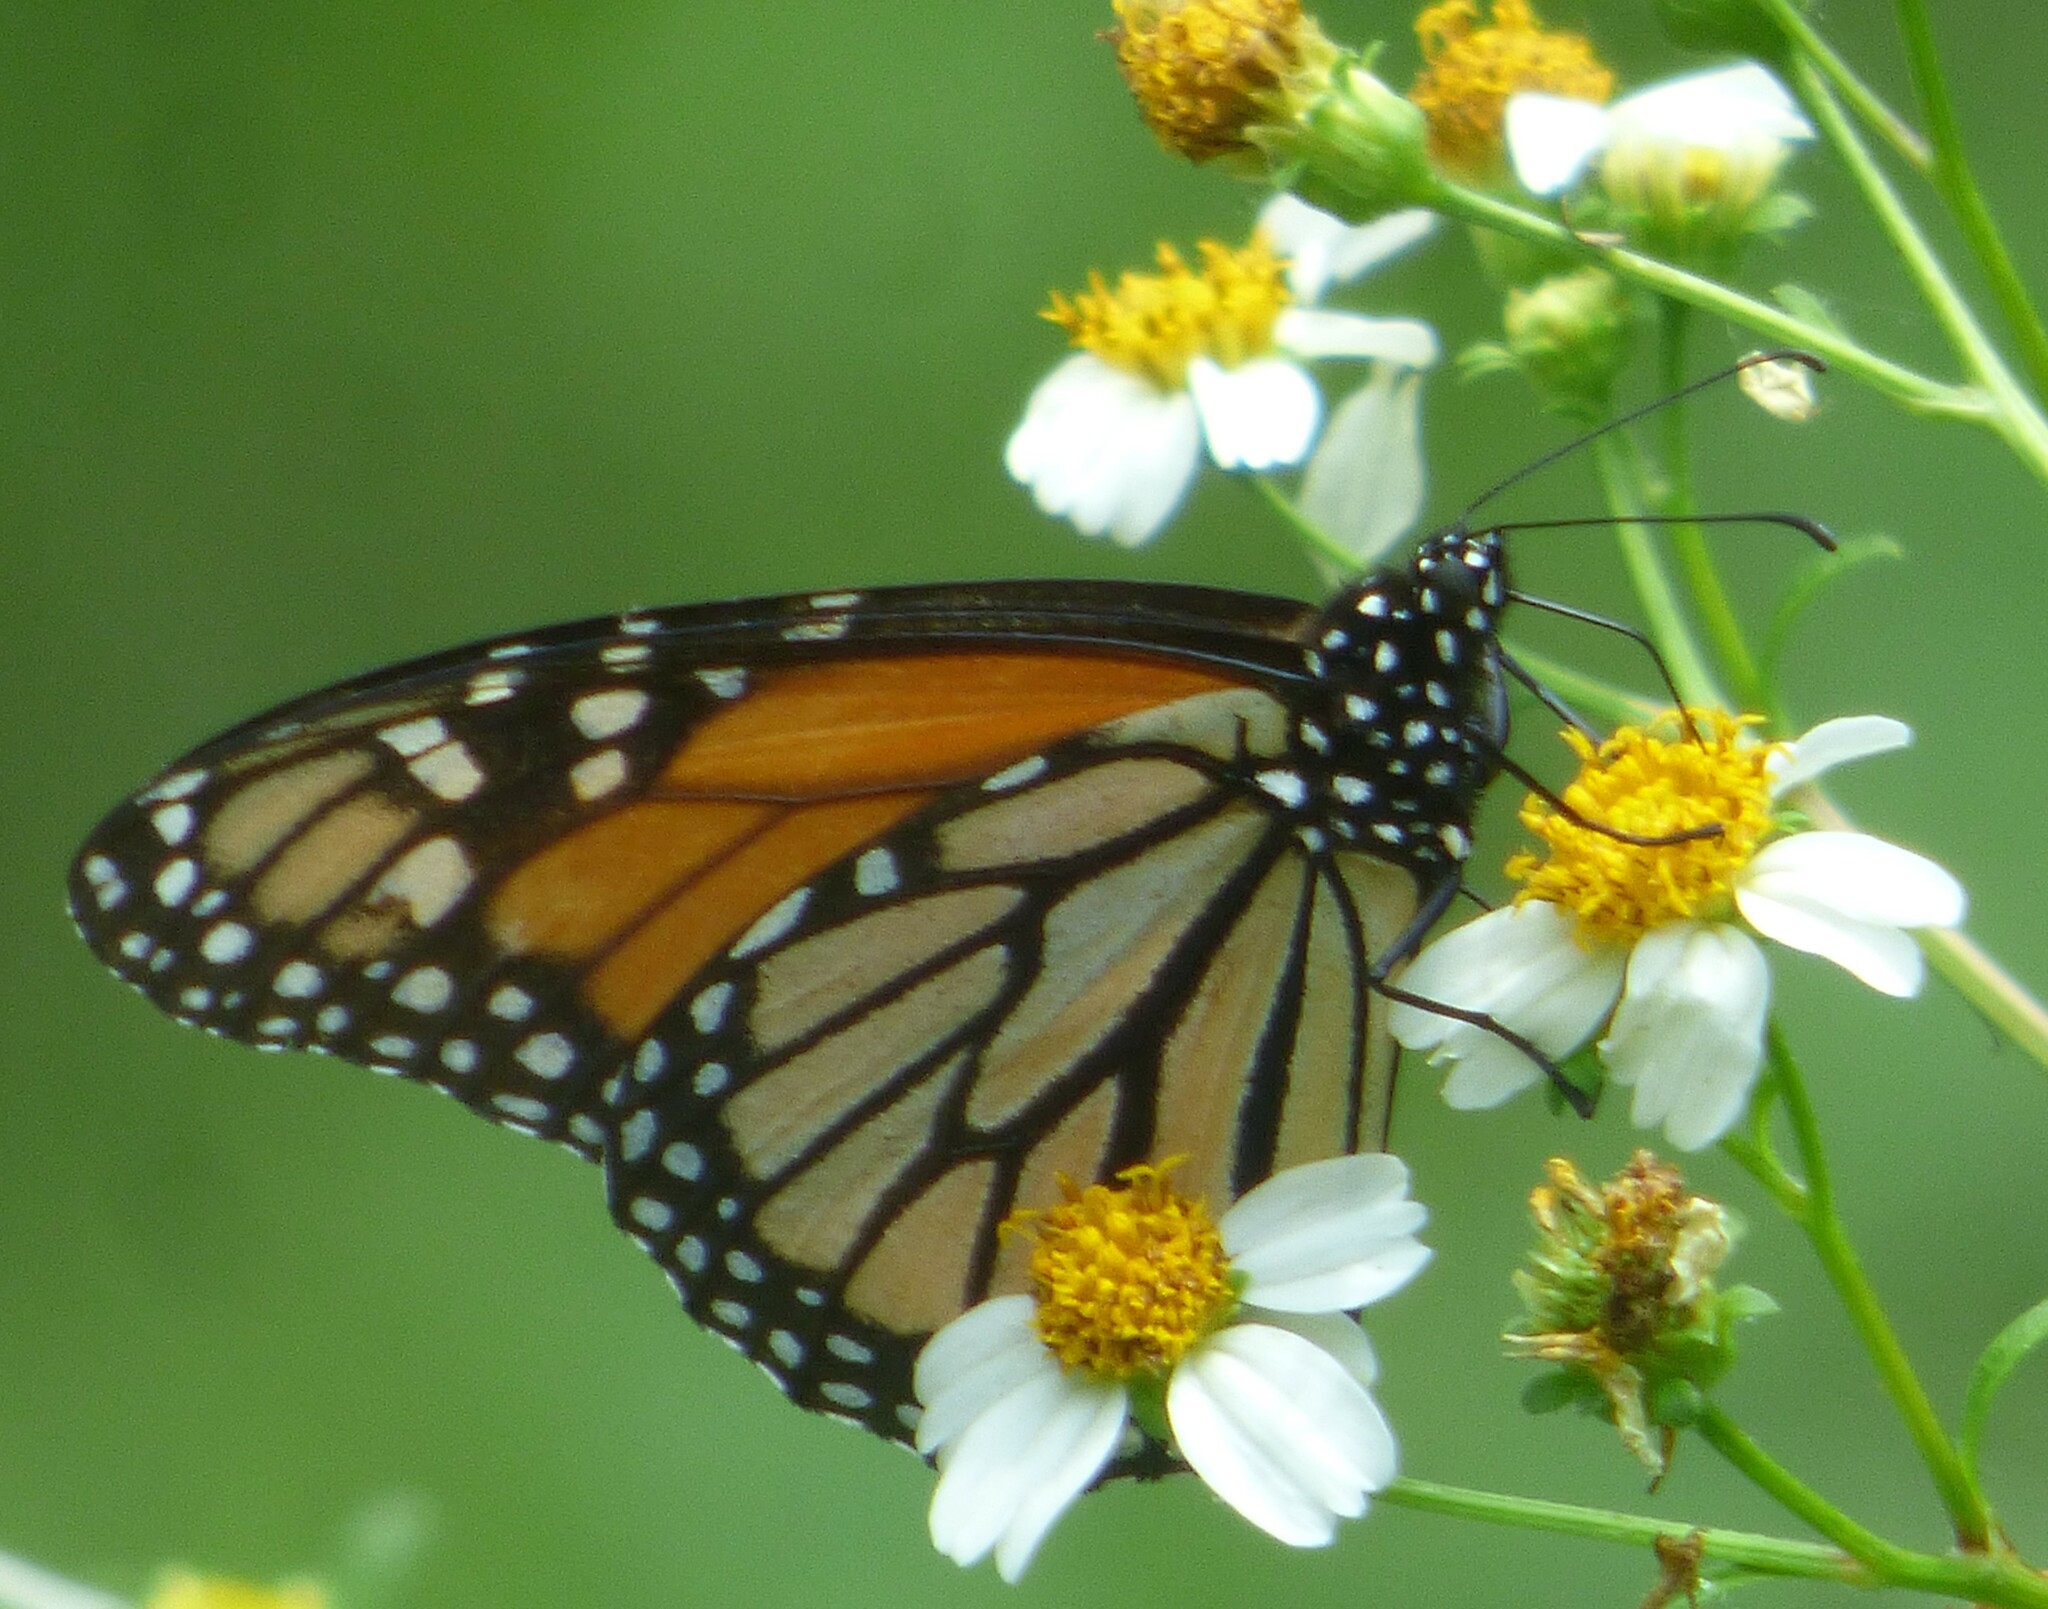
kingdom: Animalia
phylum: Arthropoda
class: Insecta
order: Lepidoptera
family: Nymphalidae
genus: Danaus
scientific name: Danaus plexippus
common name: Monarch
